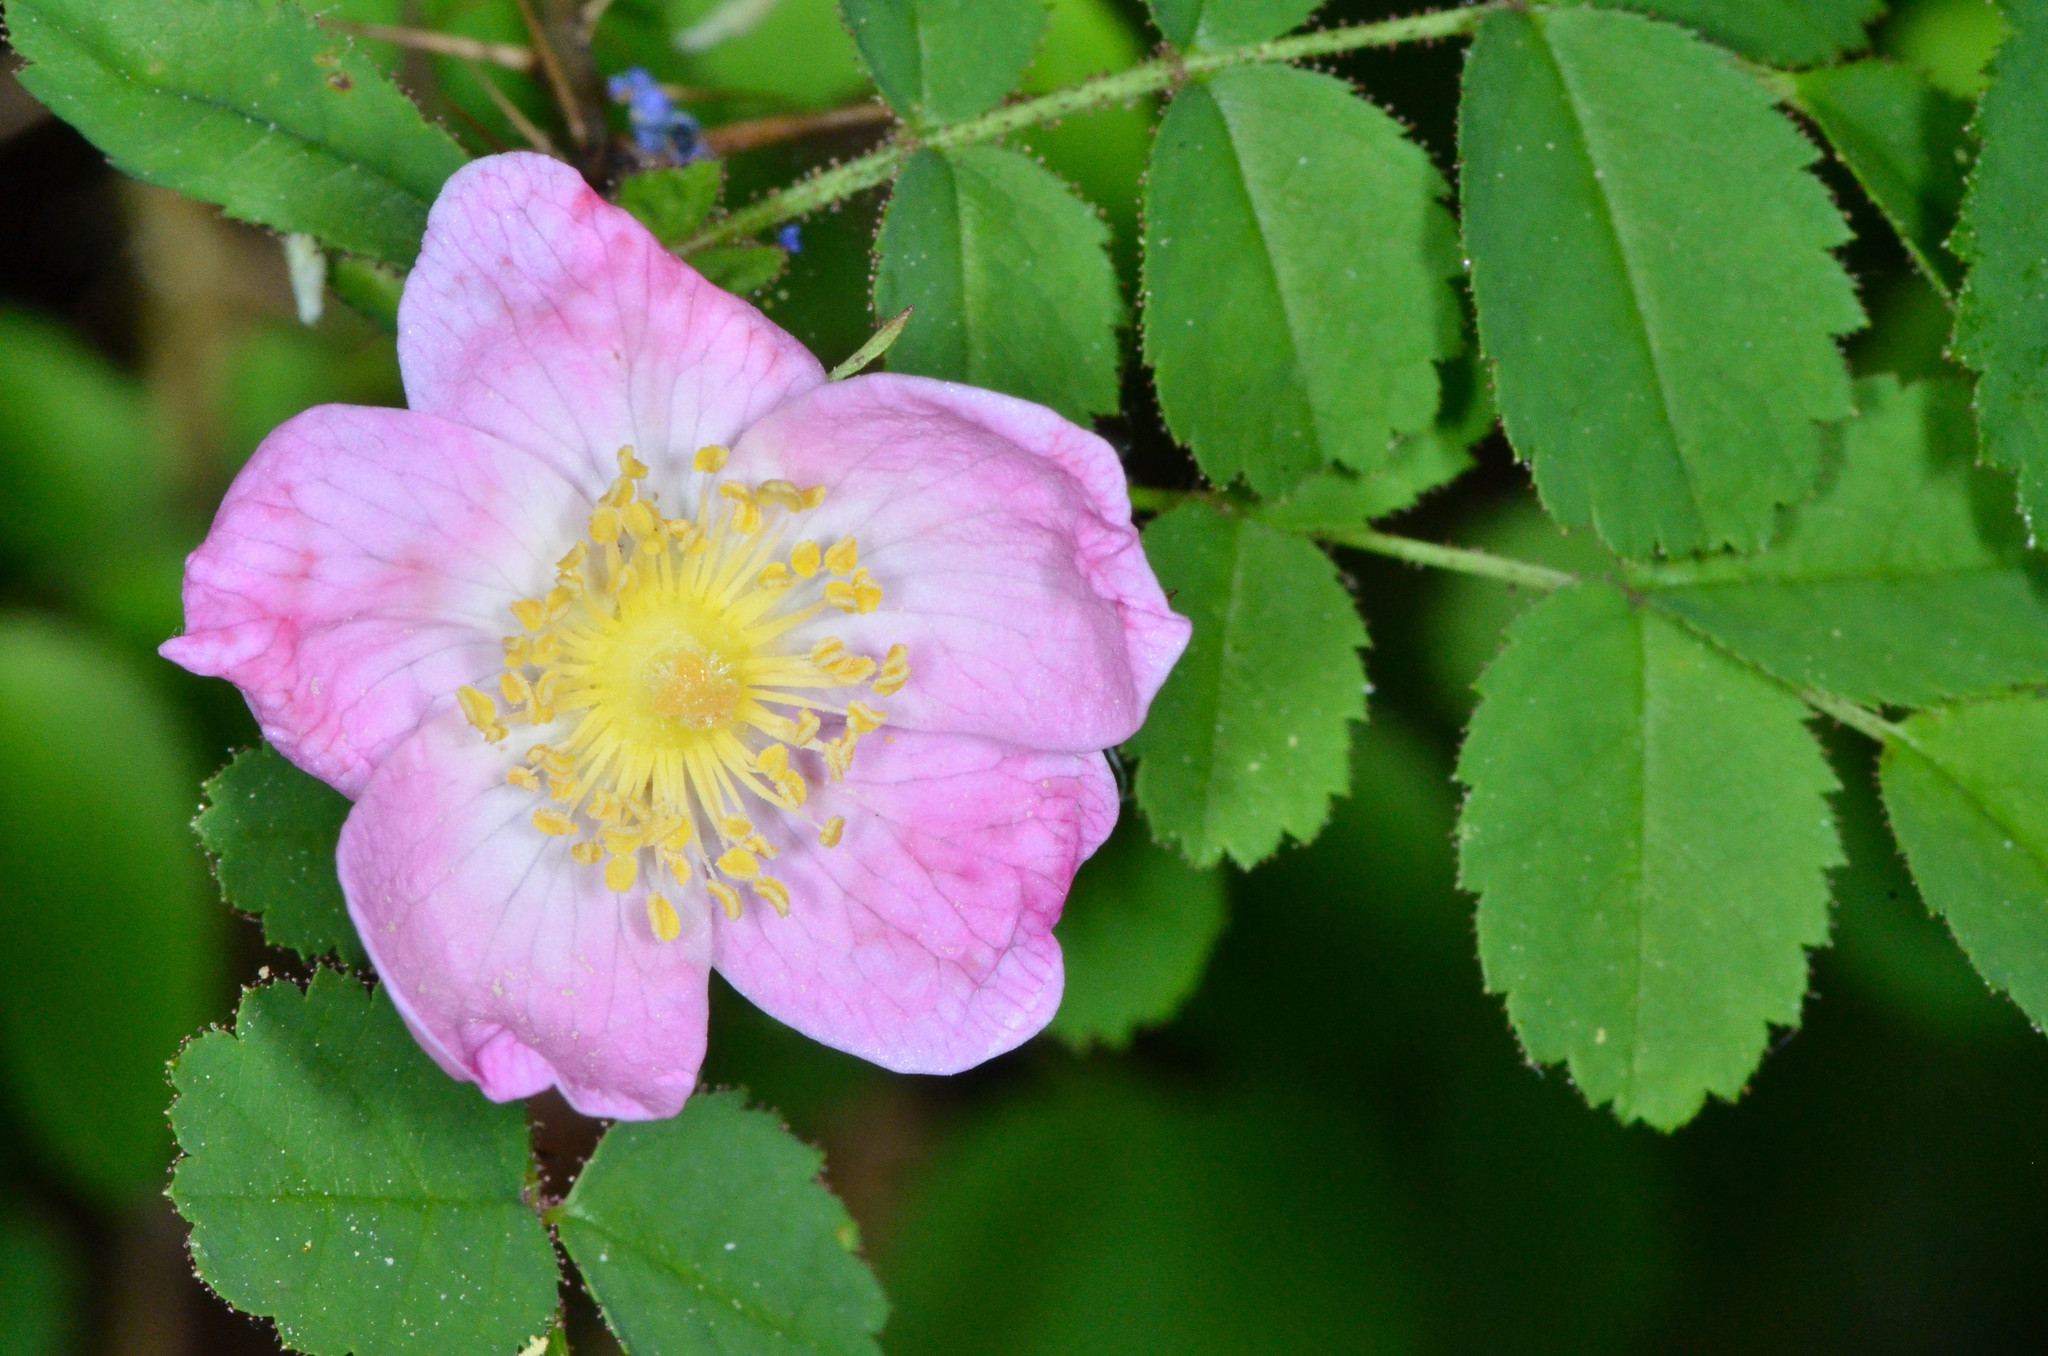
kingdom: Plantae
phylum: Tracheophyta
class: Magnoliopsida
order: Rosales
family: Rosaceae
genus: Rosa
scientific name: Rosa
